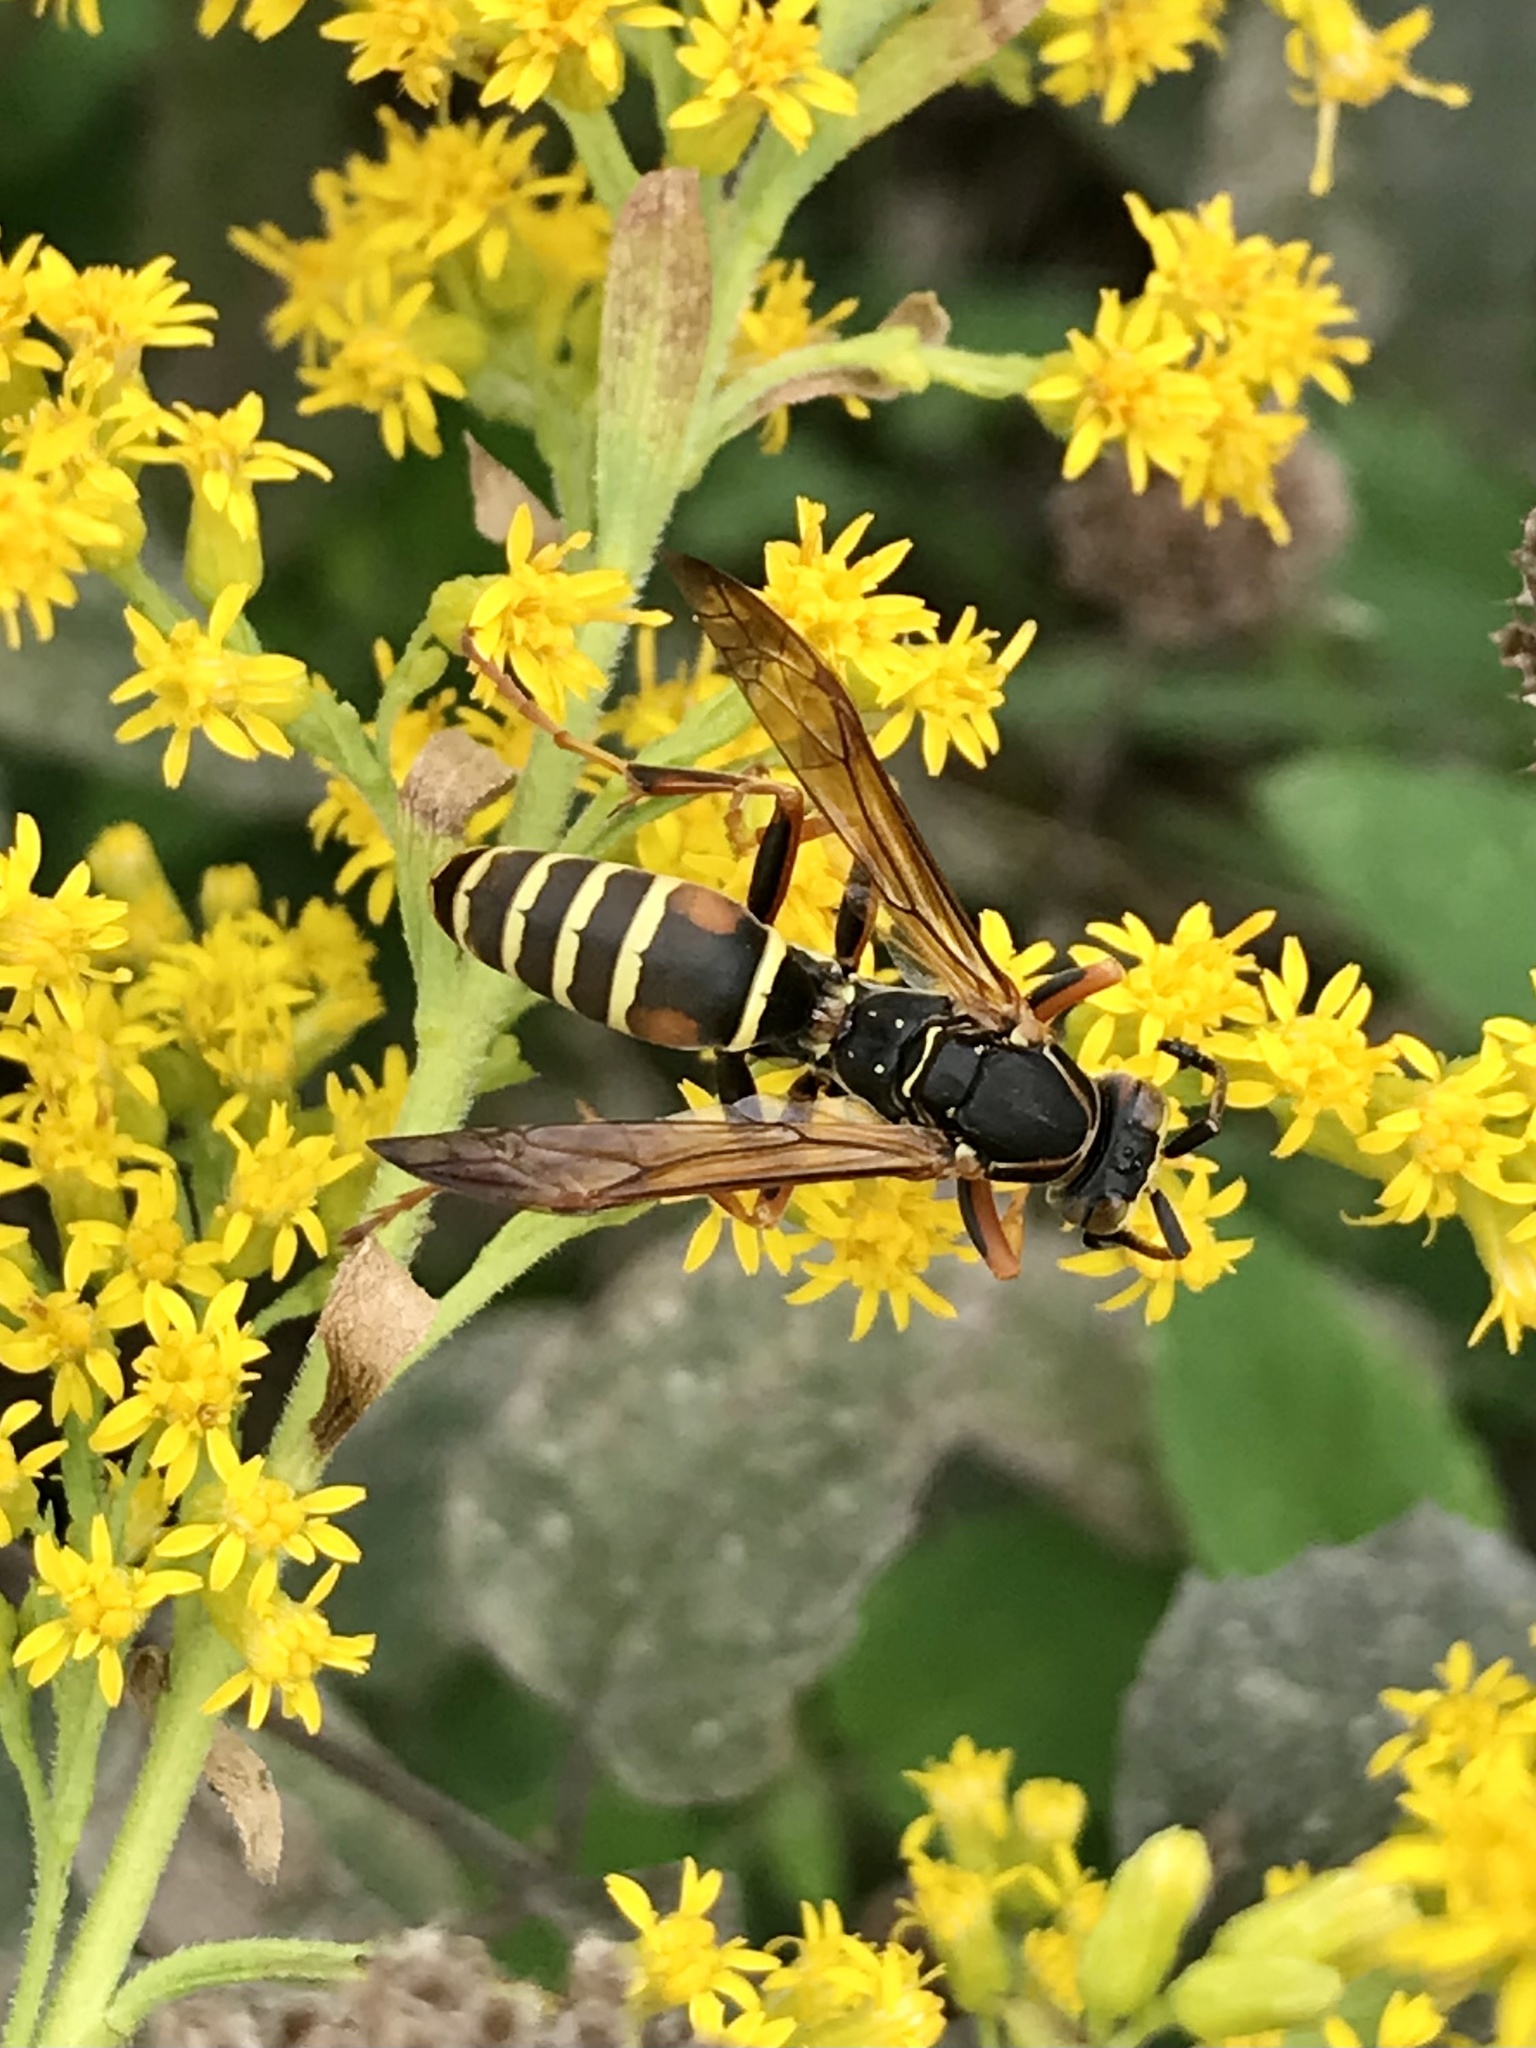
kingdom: Animalia
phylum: Arthropoda
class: Insecta
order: Hymenoptera
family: Eumenidae
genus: Polistes
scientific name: Polistes fuscatus
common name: Dark paper wasp
